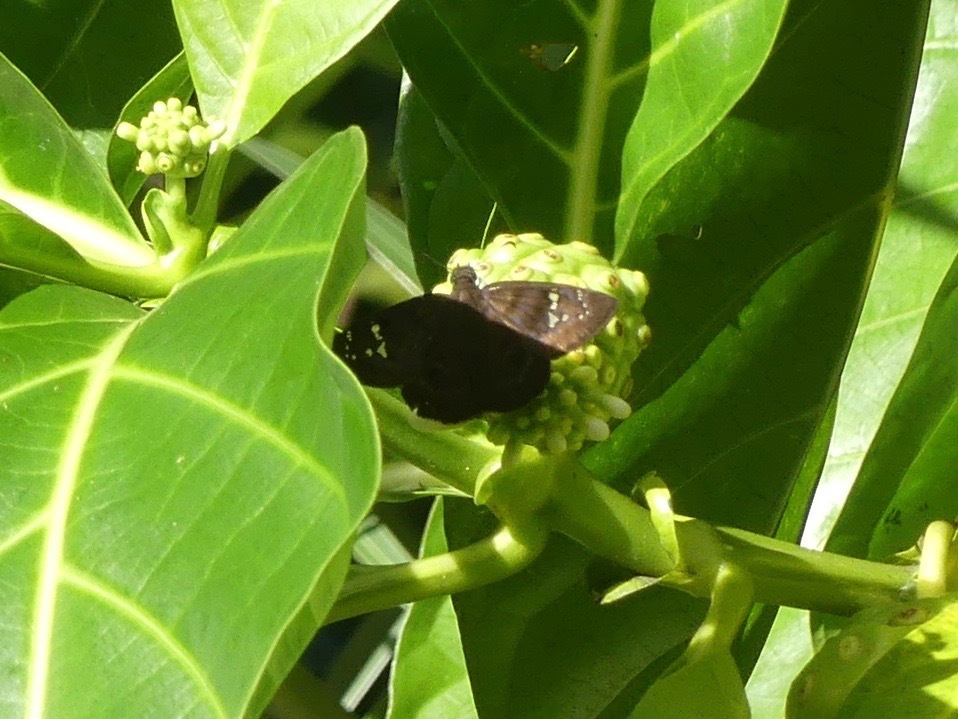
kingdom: Animalia
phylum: Arthropoda
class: Insecta
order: Lepidoptera
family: Hesperiidae
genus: Ephyriades
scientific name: Ephyriades zephodes
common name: Zephodes duskywing
